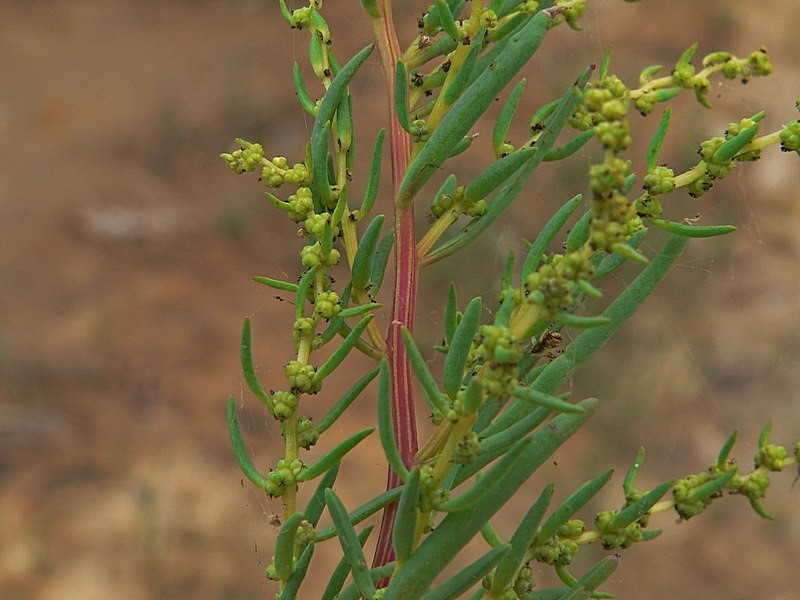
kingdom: Plantae
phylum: Tracheophyta
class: Magnoliopsida
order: Caryophyllales
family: Amaranthaceae
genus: Suaeda
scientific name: Suaeda australis
